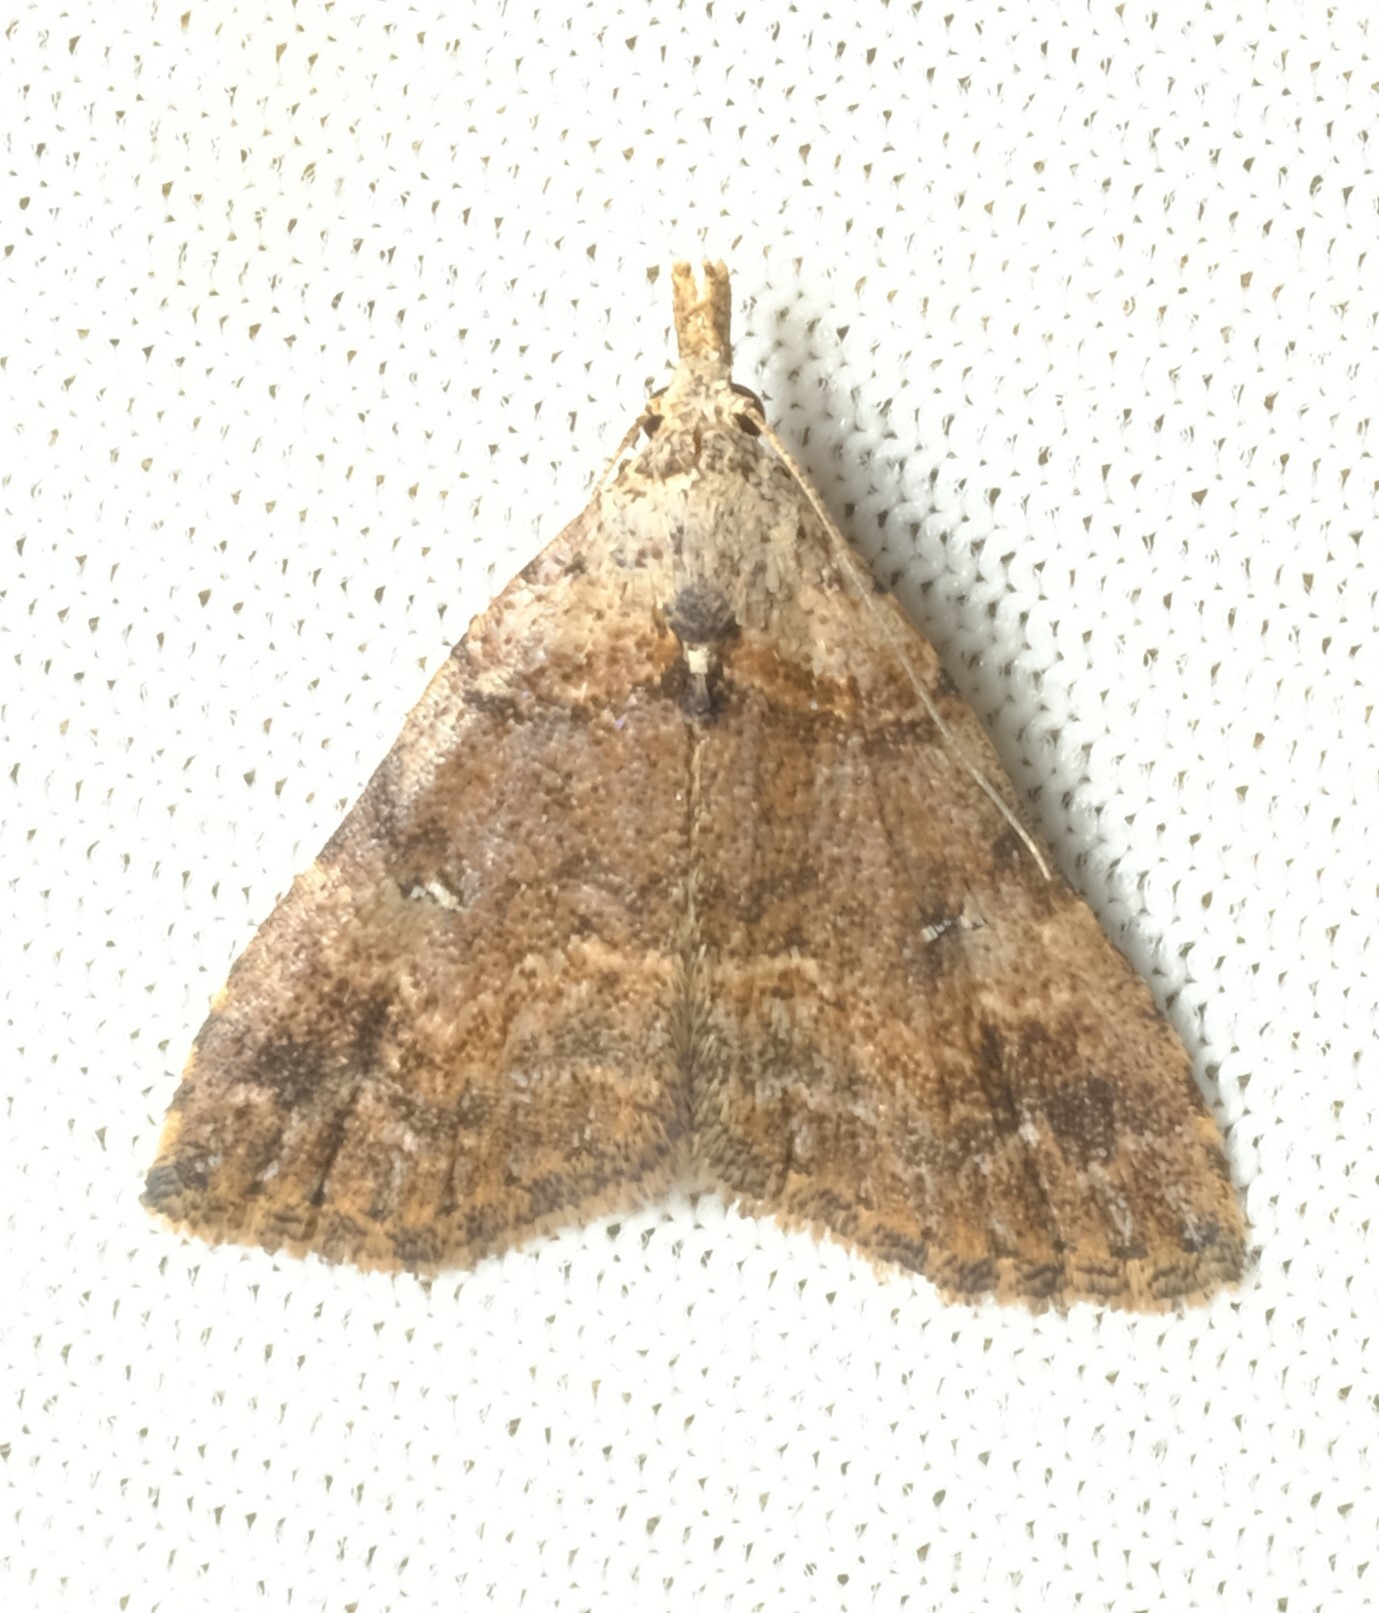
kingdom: Animalia
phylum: Arthropoda
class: Insecta
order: Lepidoptera
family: Erebidae
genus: Alapadna
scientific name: Alapadna pauropis
